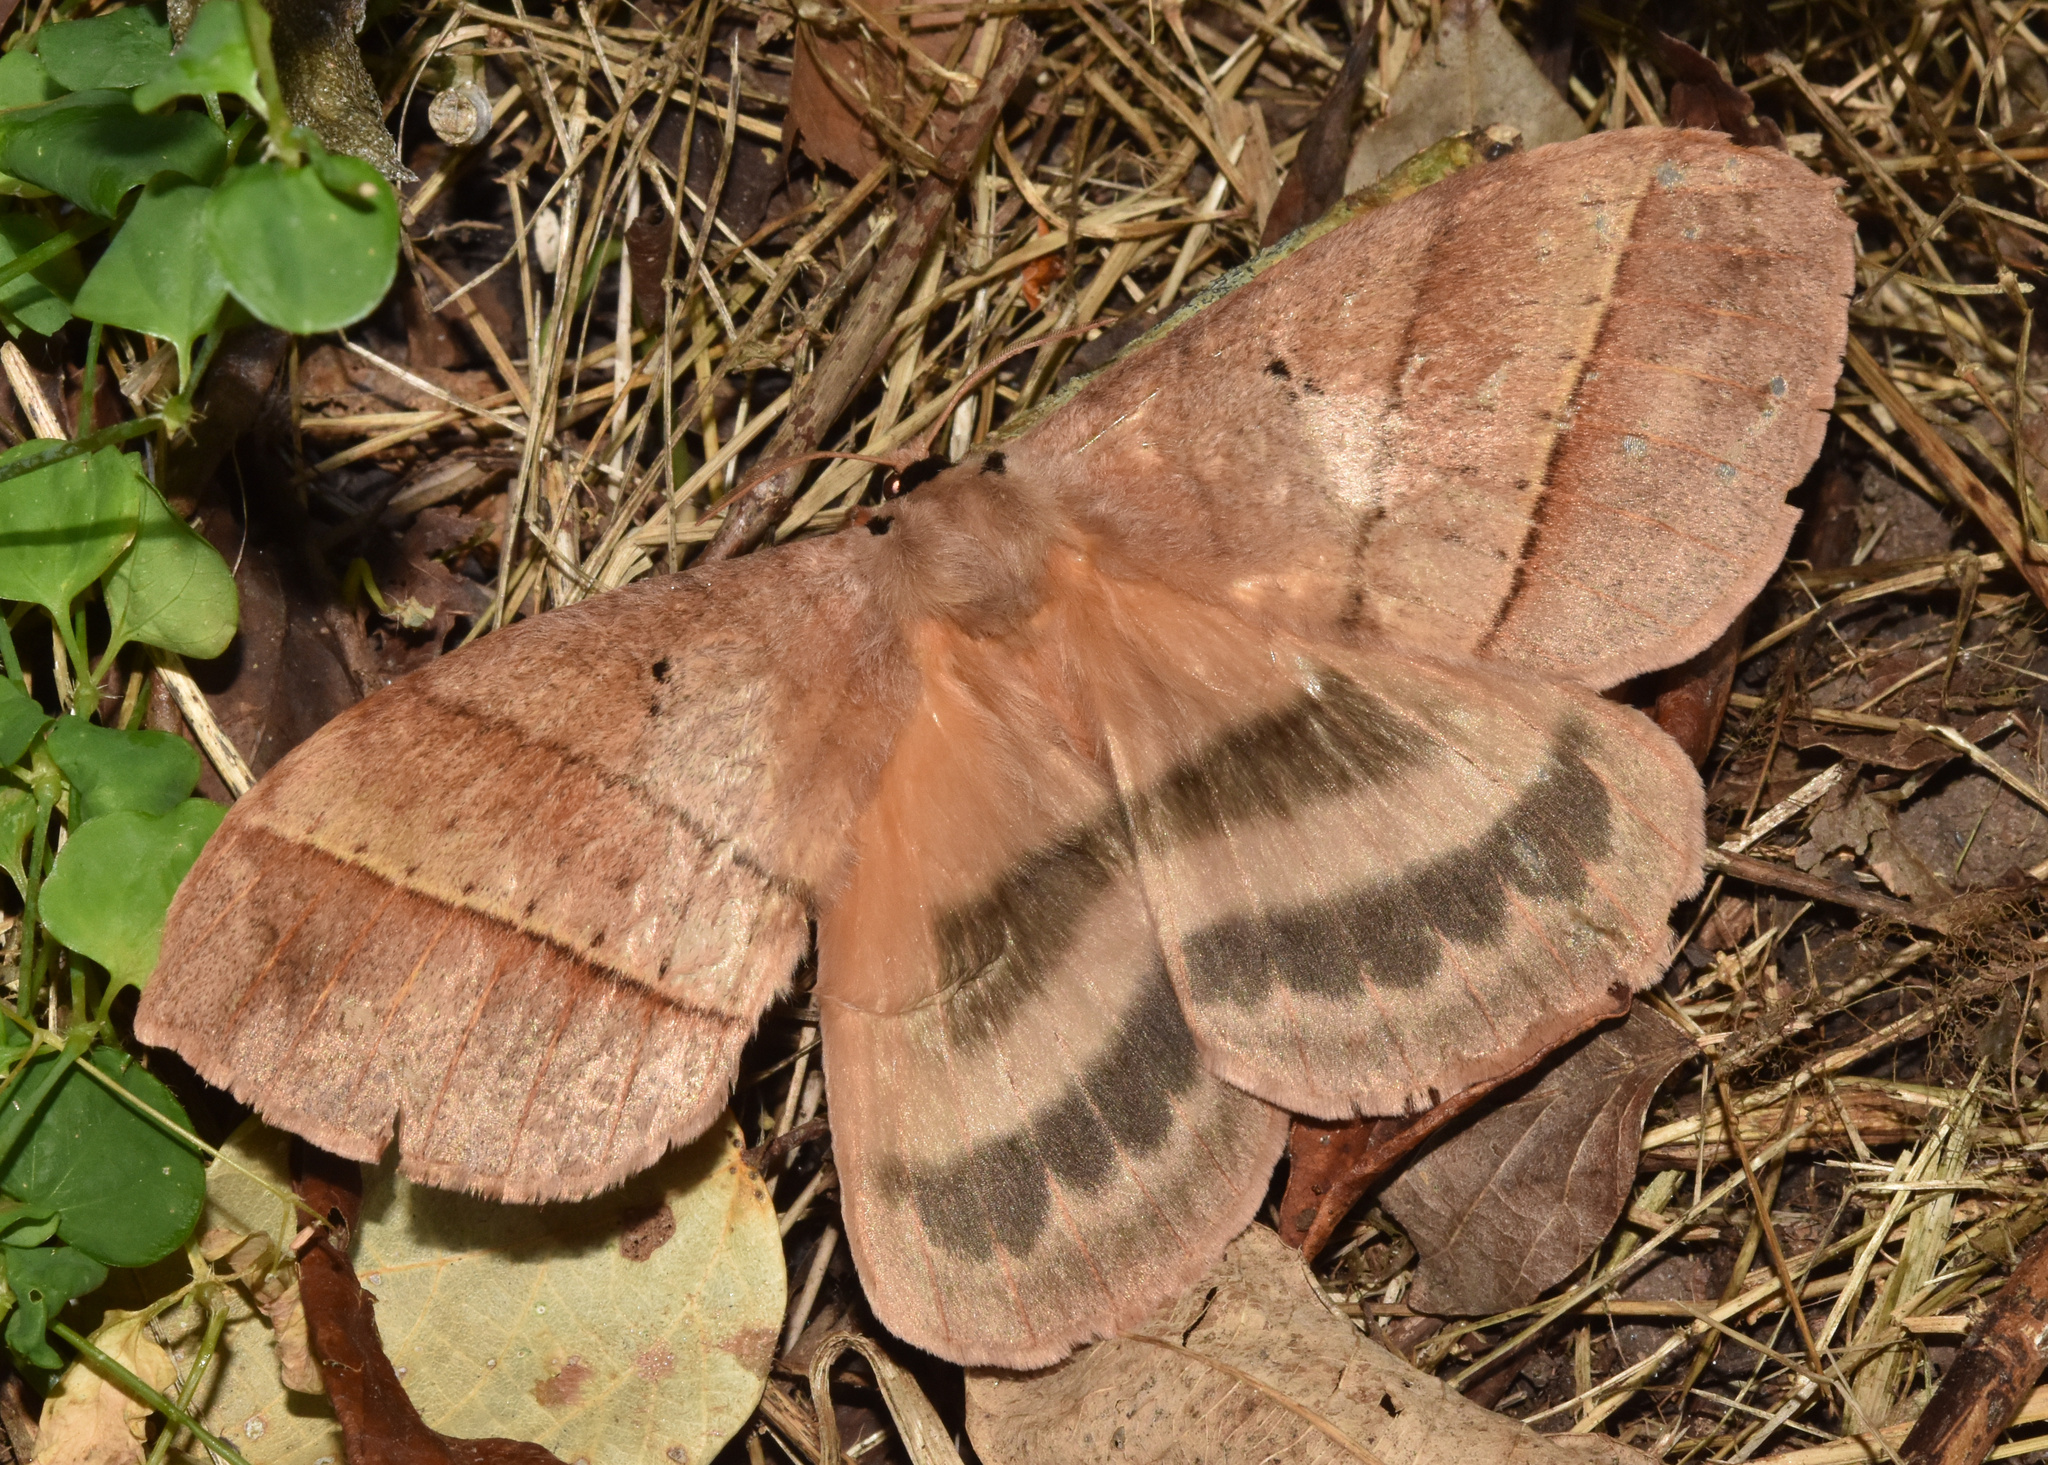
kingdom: Animalia
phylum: Arthropoda
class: Insecta
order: Lepidoptera
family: Eupterotidae
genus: Jana
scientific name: Jana eurymas
